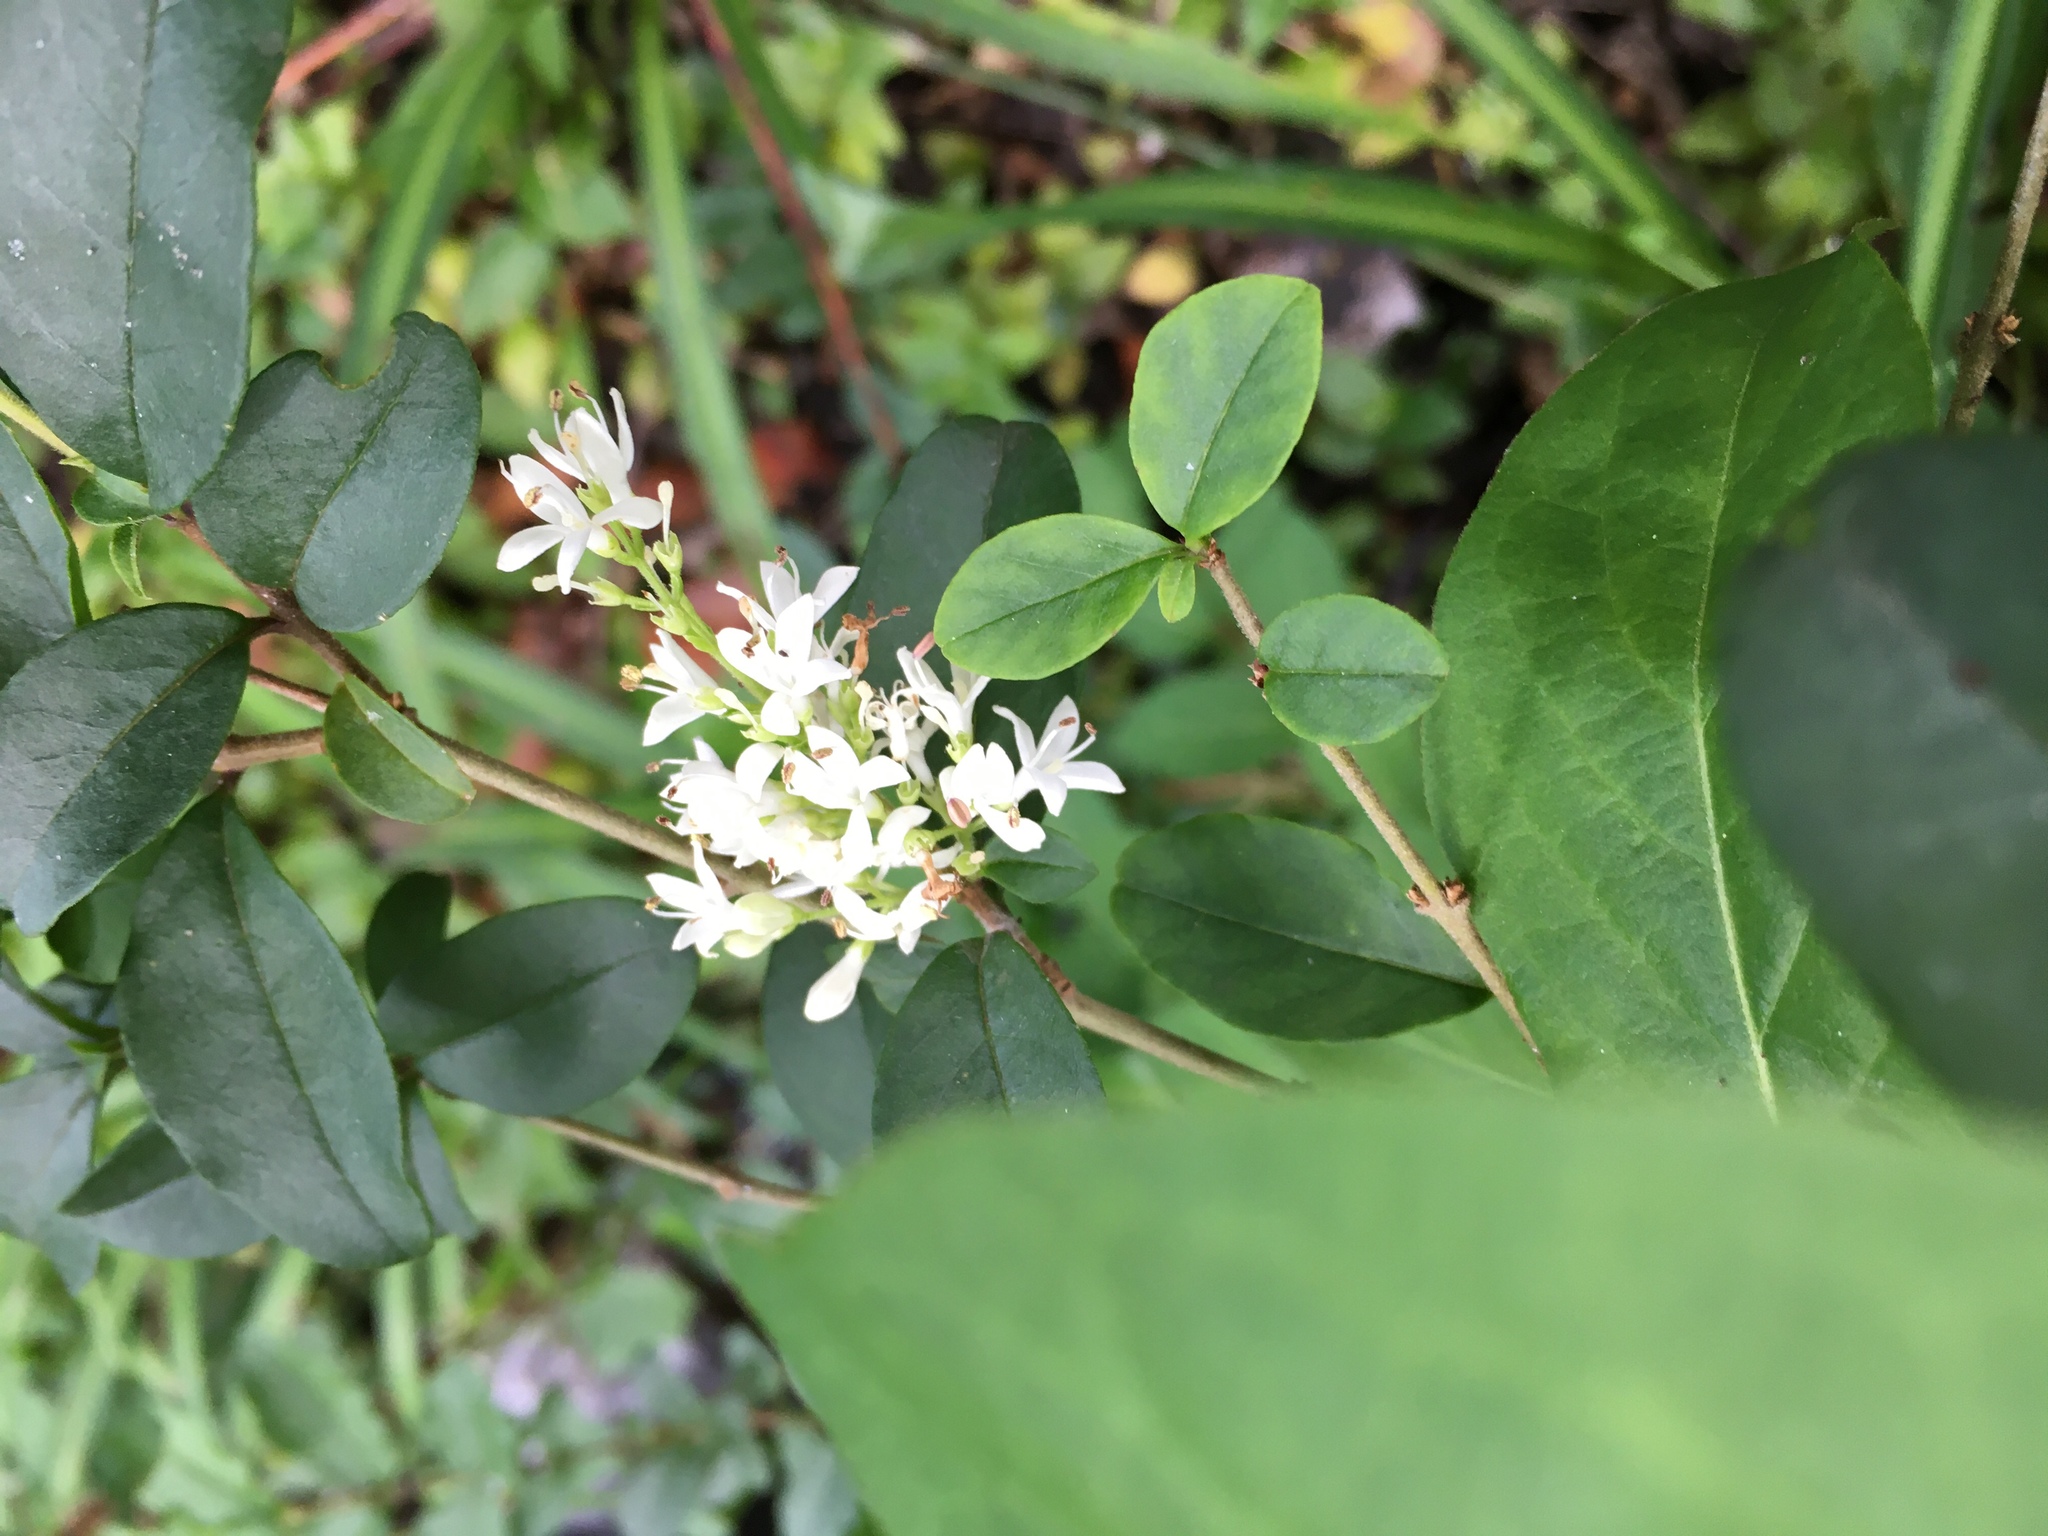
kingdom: Plantae
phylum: Tracheophyta
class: Magnoliopsida
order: Lamiales
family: Oleaceae
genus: Ligustrum
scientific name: Ligustrum sinense
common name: Chinese privet
